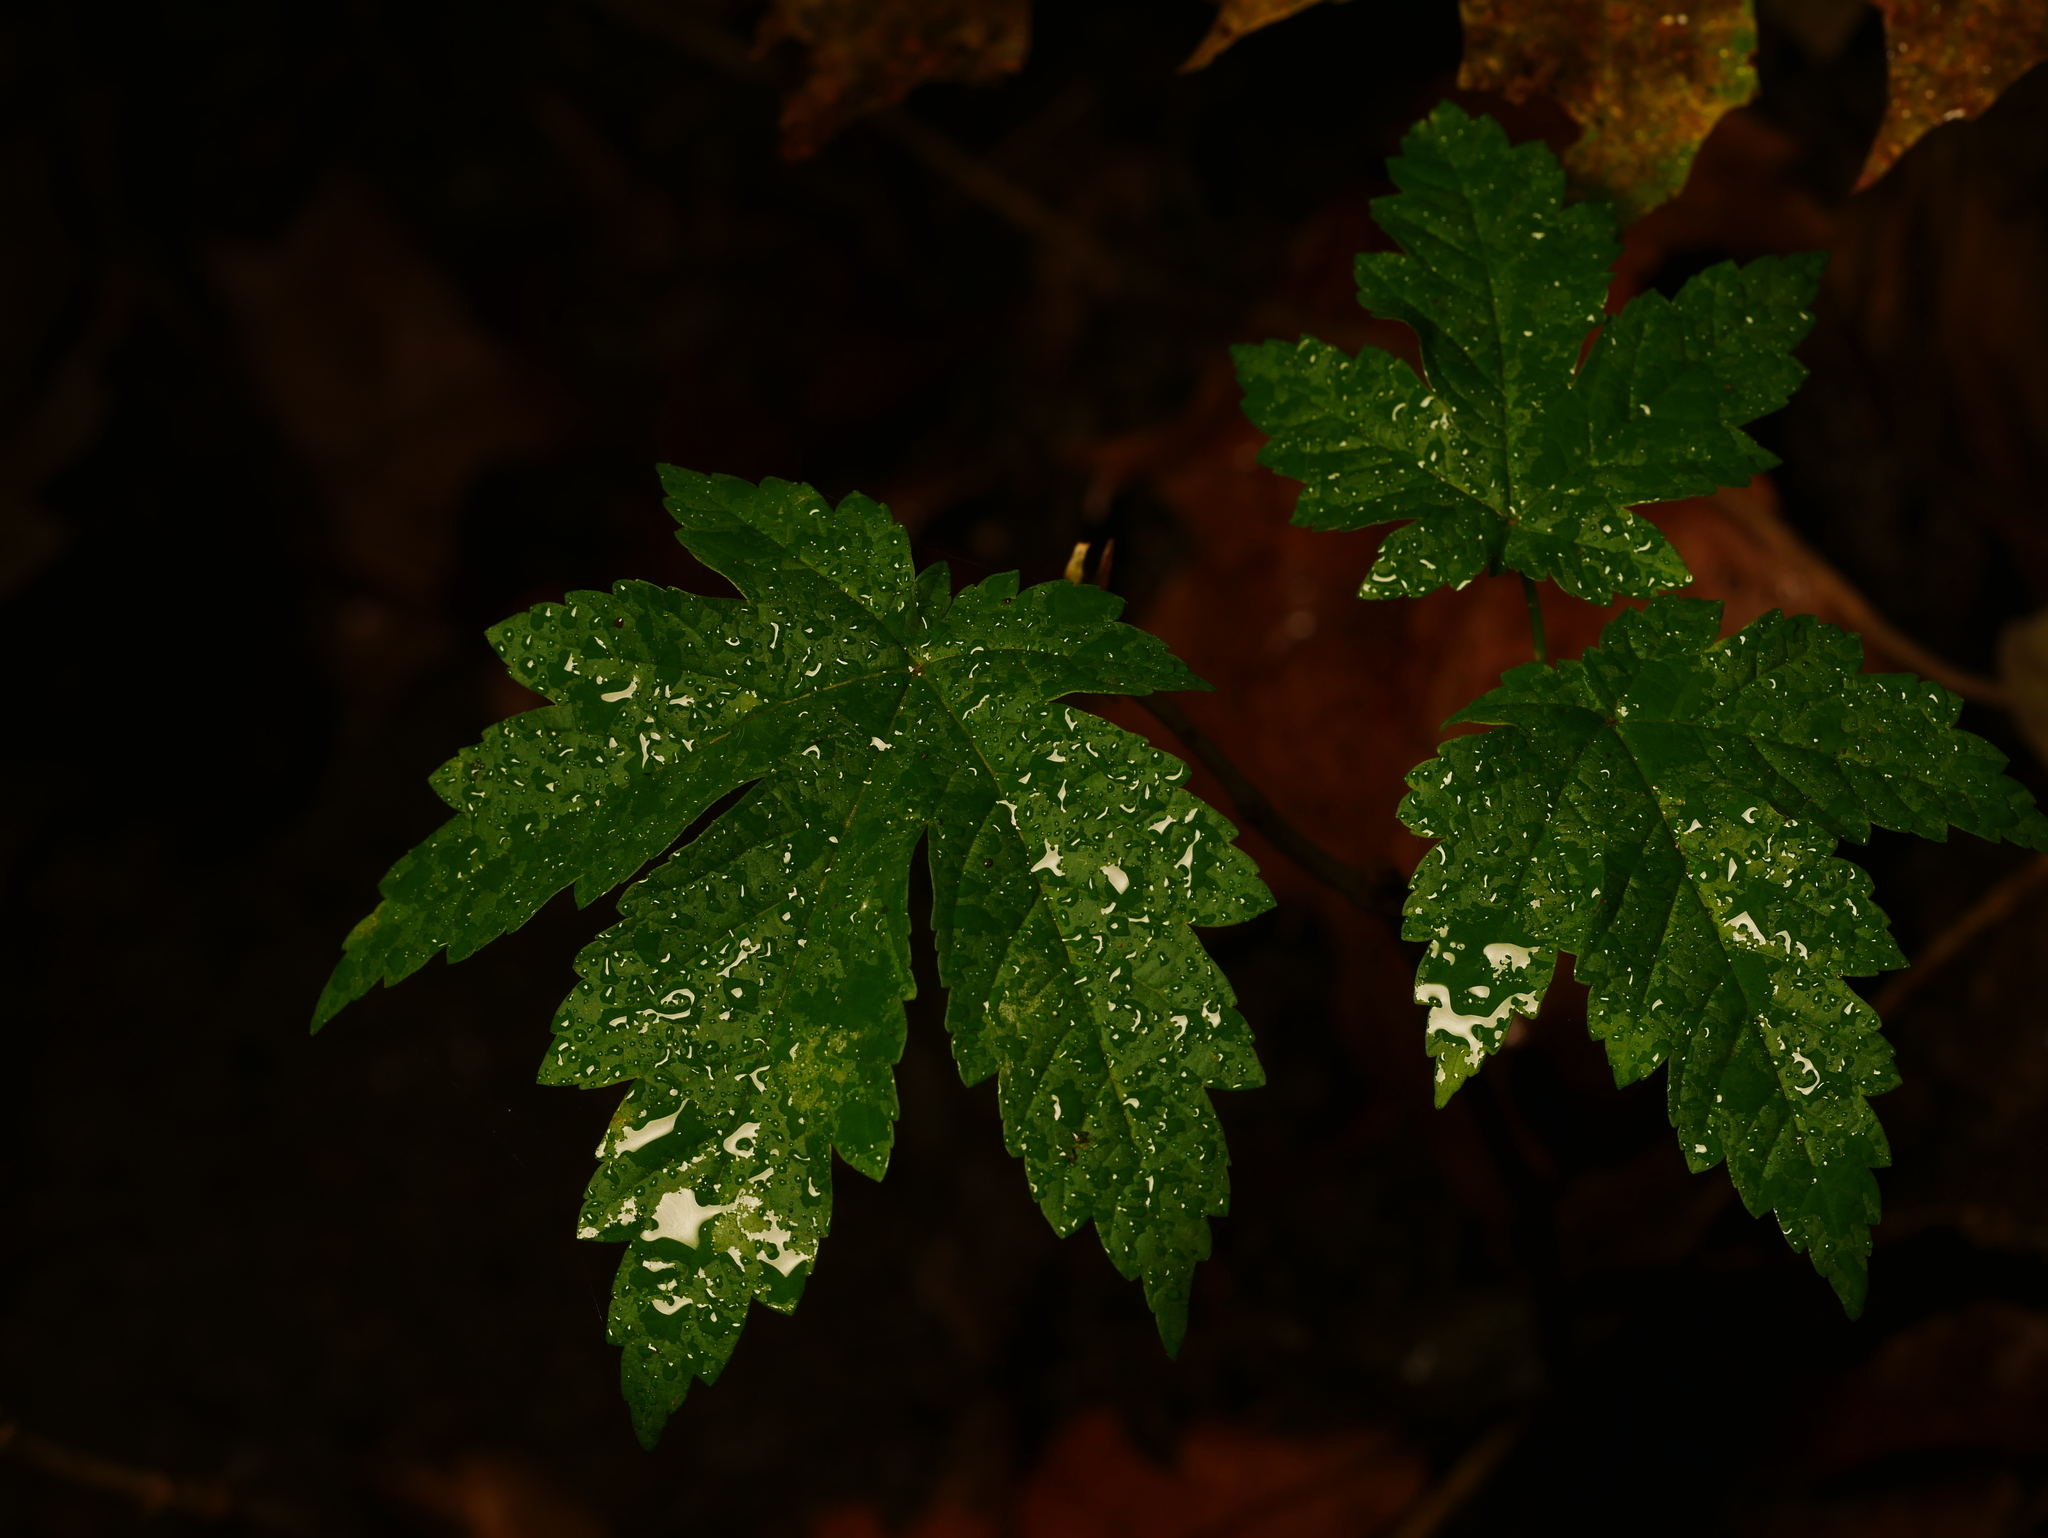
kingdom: Plantae
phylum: Tracheophyta
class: Magnoliopsida
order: Sapindales
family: Sapindaceae
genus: Acer
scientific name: Acer pseudoplatanus
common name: Sycamore
